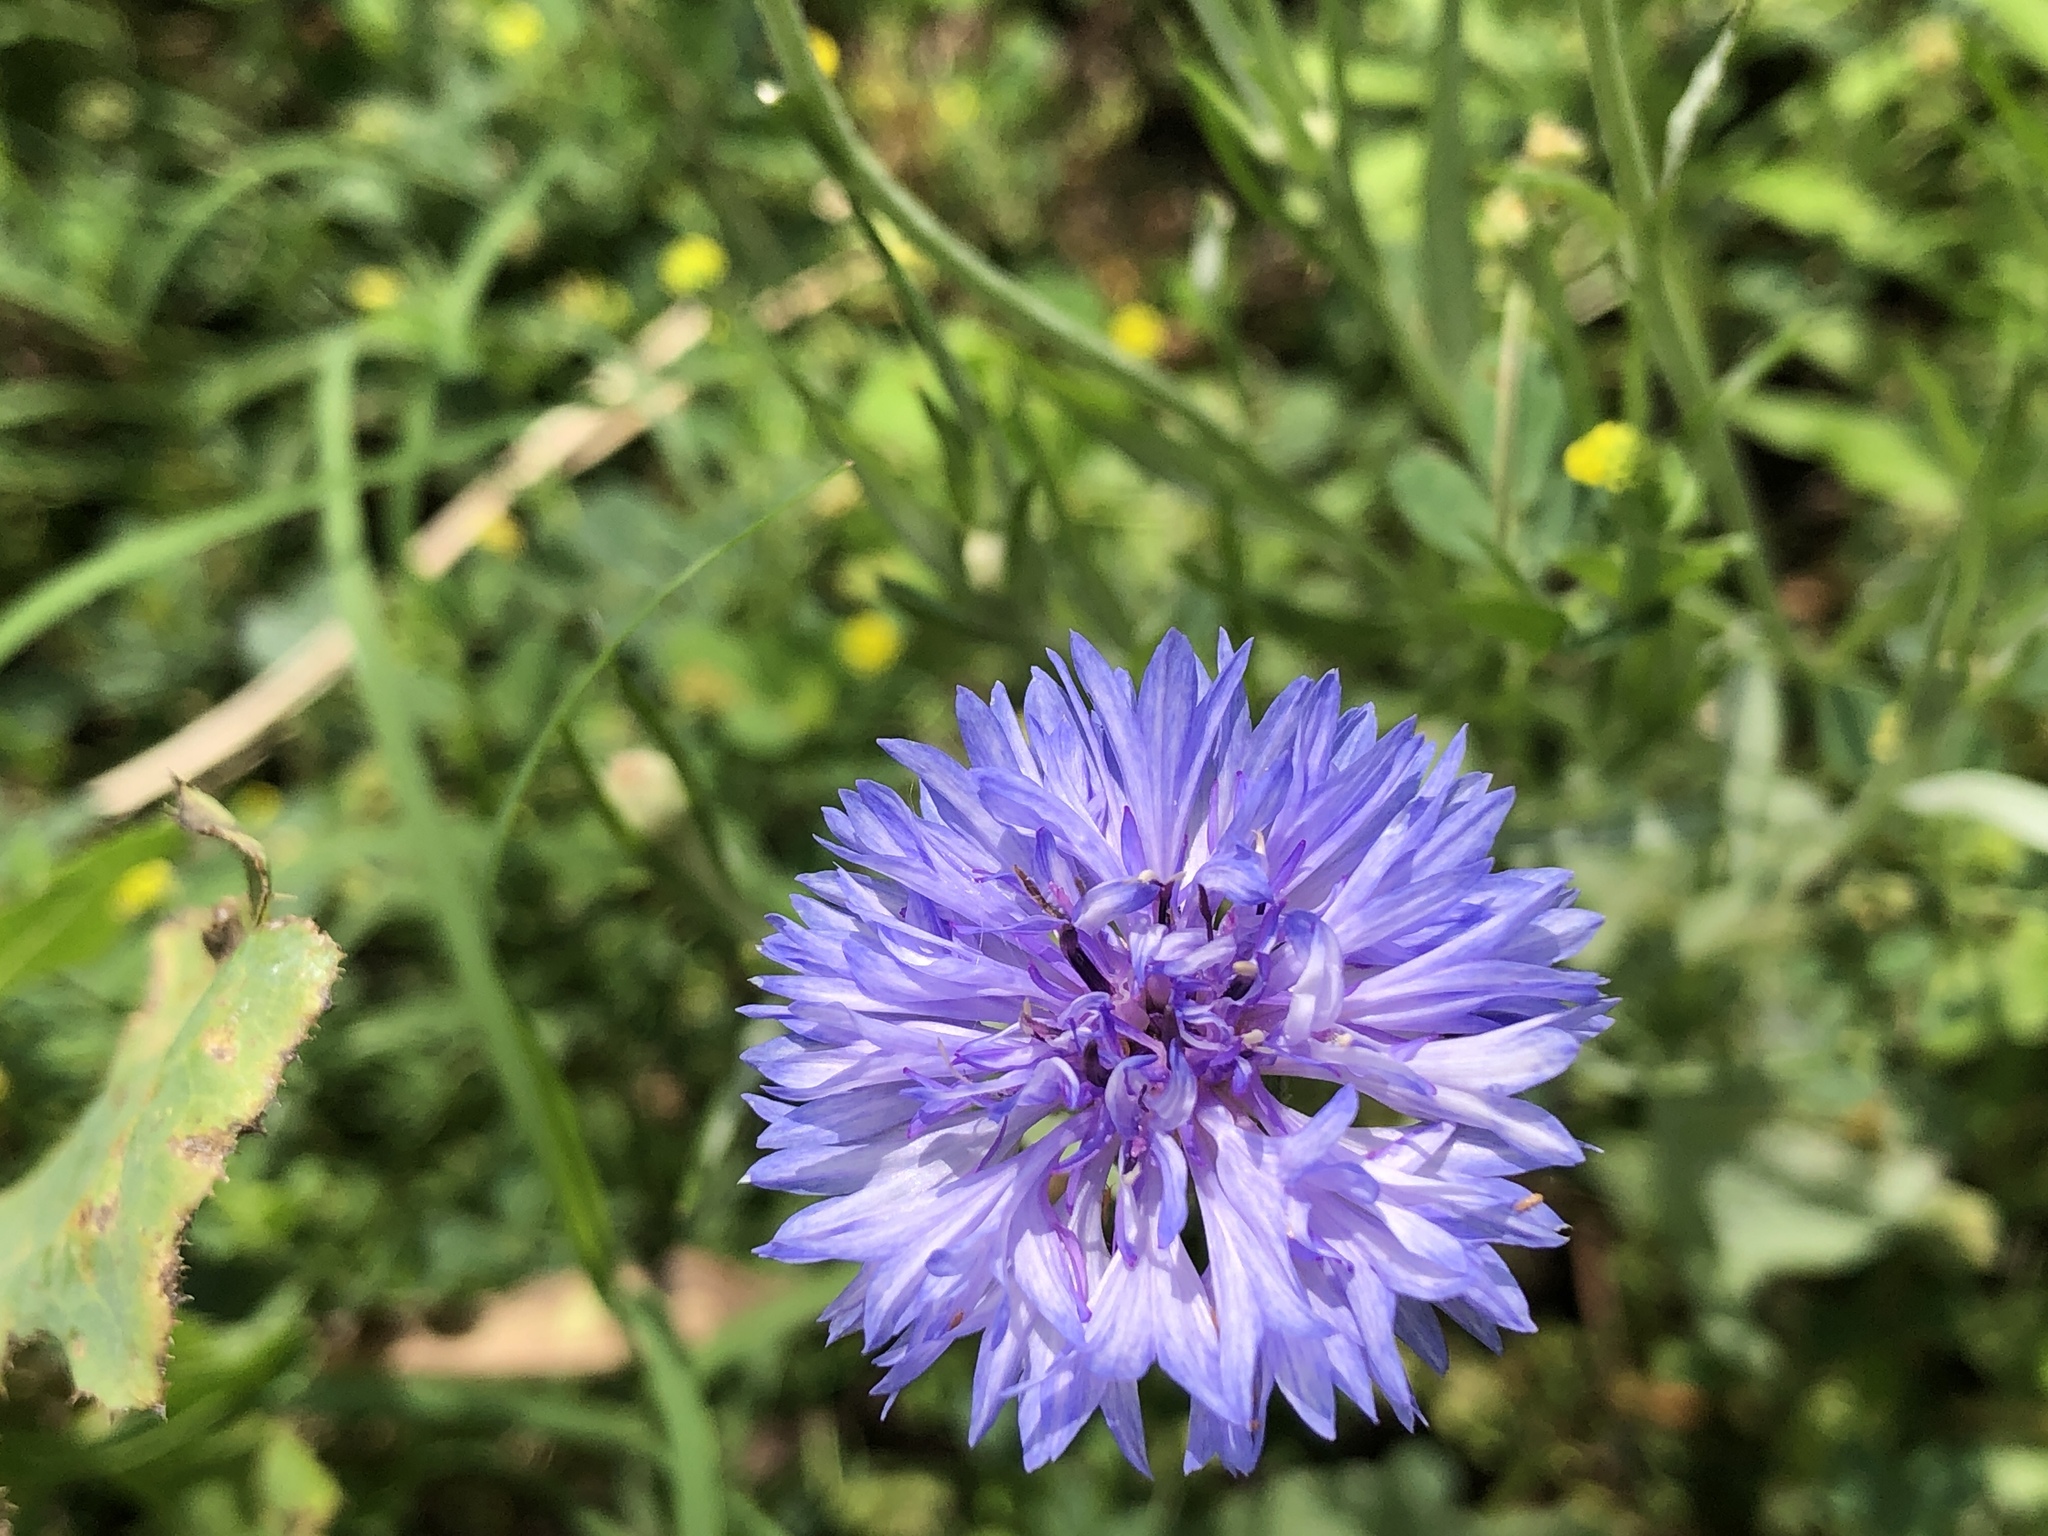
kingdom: Plantae
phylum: Tracheophyta
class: Magnoliopsida
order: Asterales
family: Asteraceae
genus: Centaurea
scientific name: Centaurea cyanus
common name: Cornflower
